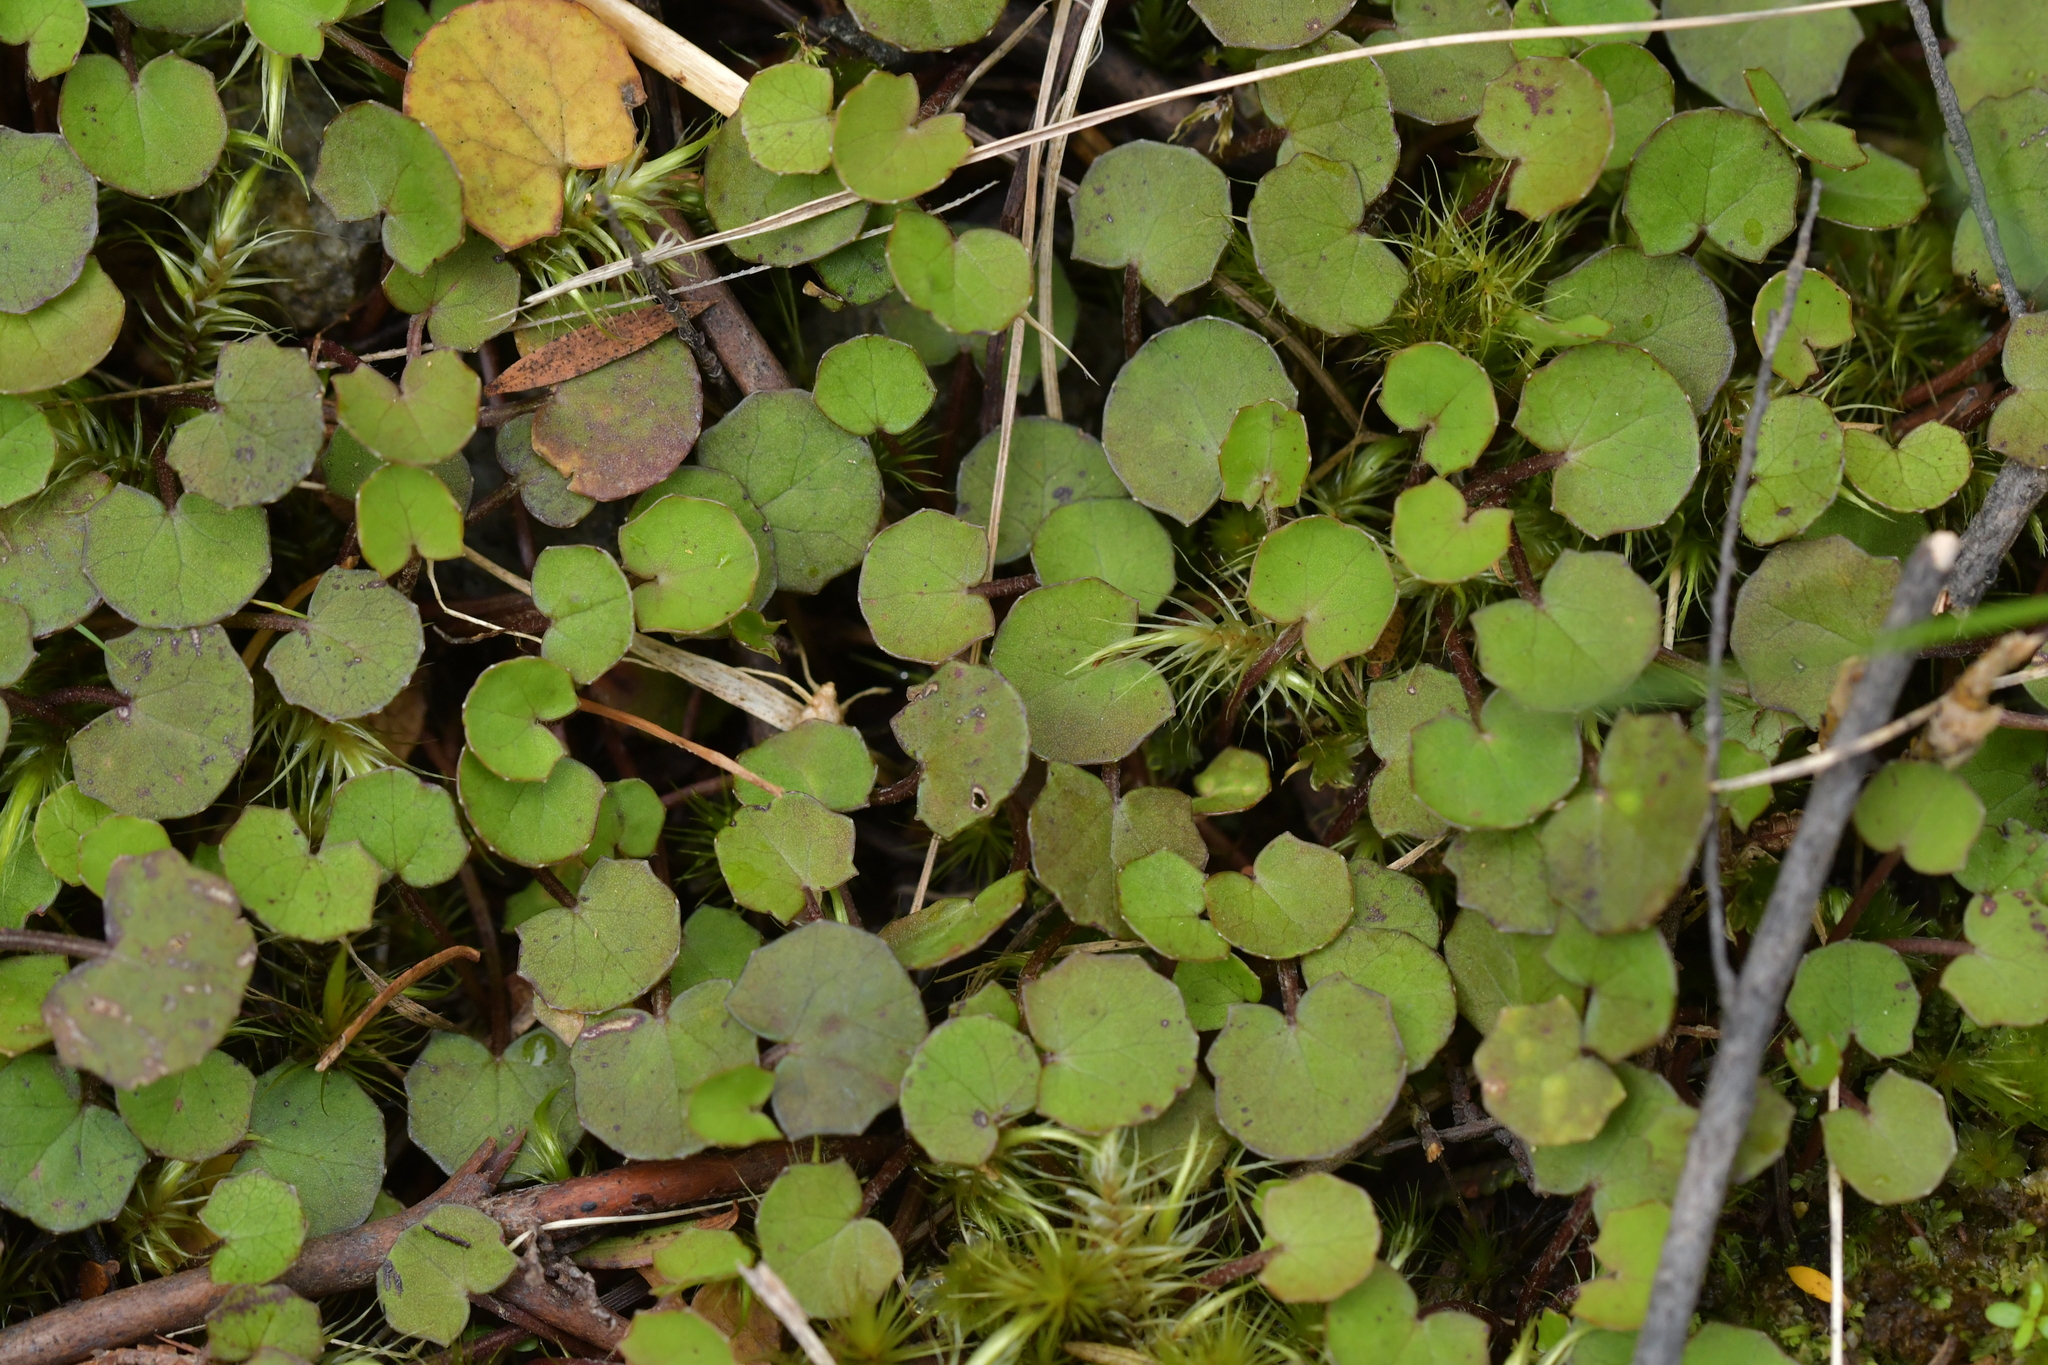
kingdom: Plantae
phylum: Tracheophyta
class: Magnoliopsida
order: Apiales
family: Apiaceae
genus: Centella
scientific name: Centella uniflora
